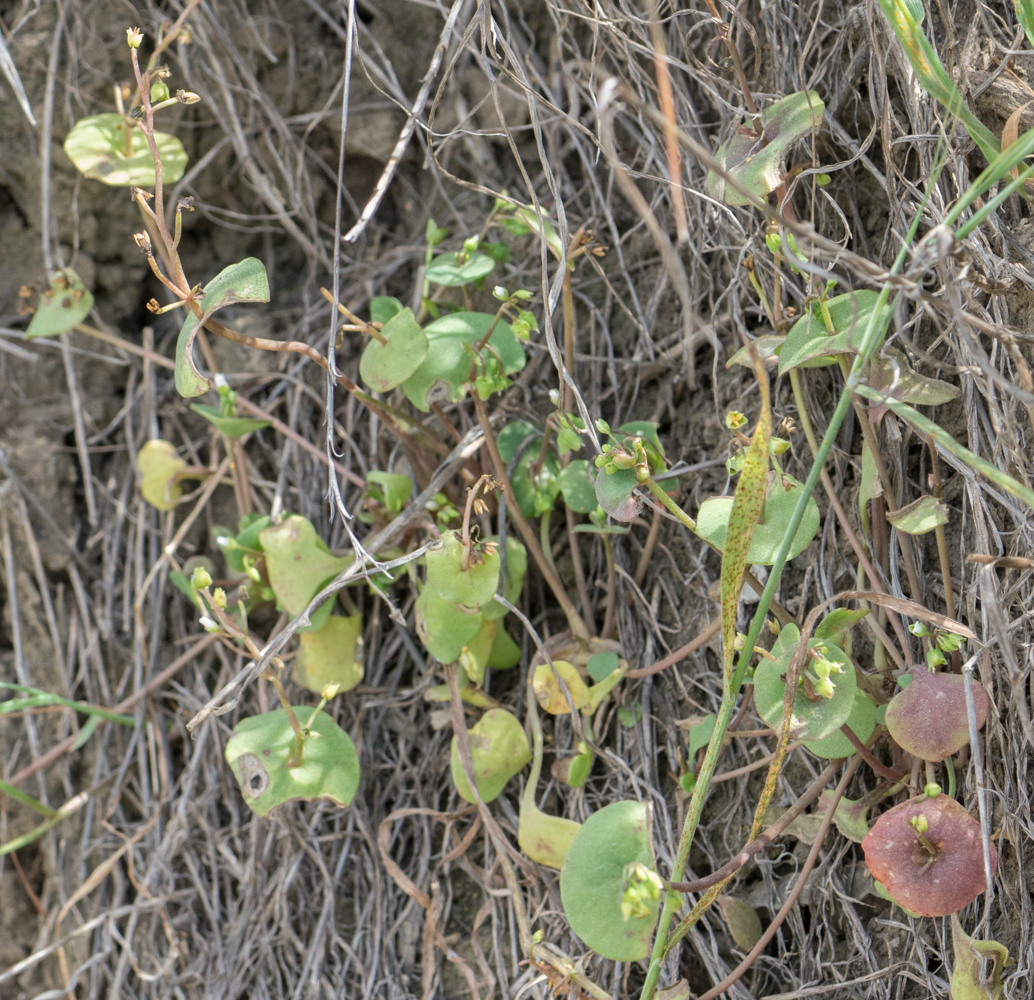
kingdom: Plantae
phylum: Tracheophyta
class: Magnoliopsida
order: Caryophyllales
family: Montiaceae
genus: Claytonia
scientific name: Claytonia perfoliata
